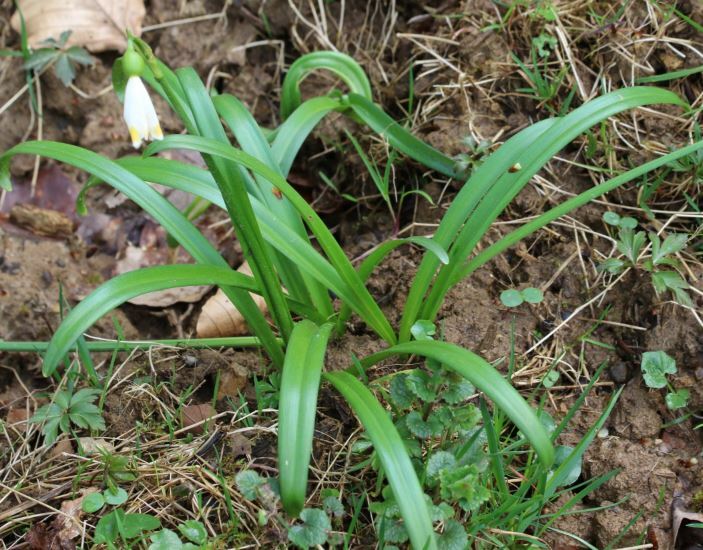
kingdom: Plantae
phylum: Tracheophyta
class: Liliopsida
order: Asparagales
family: Amaryllidaceae
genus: Leucojum
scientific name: Leucojum vernum
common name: Spring snowflake
